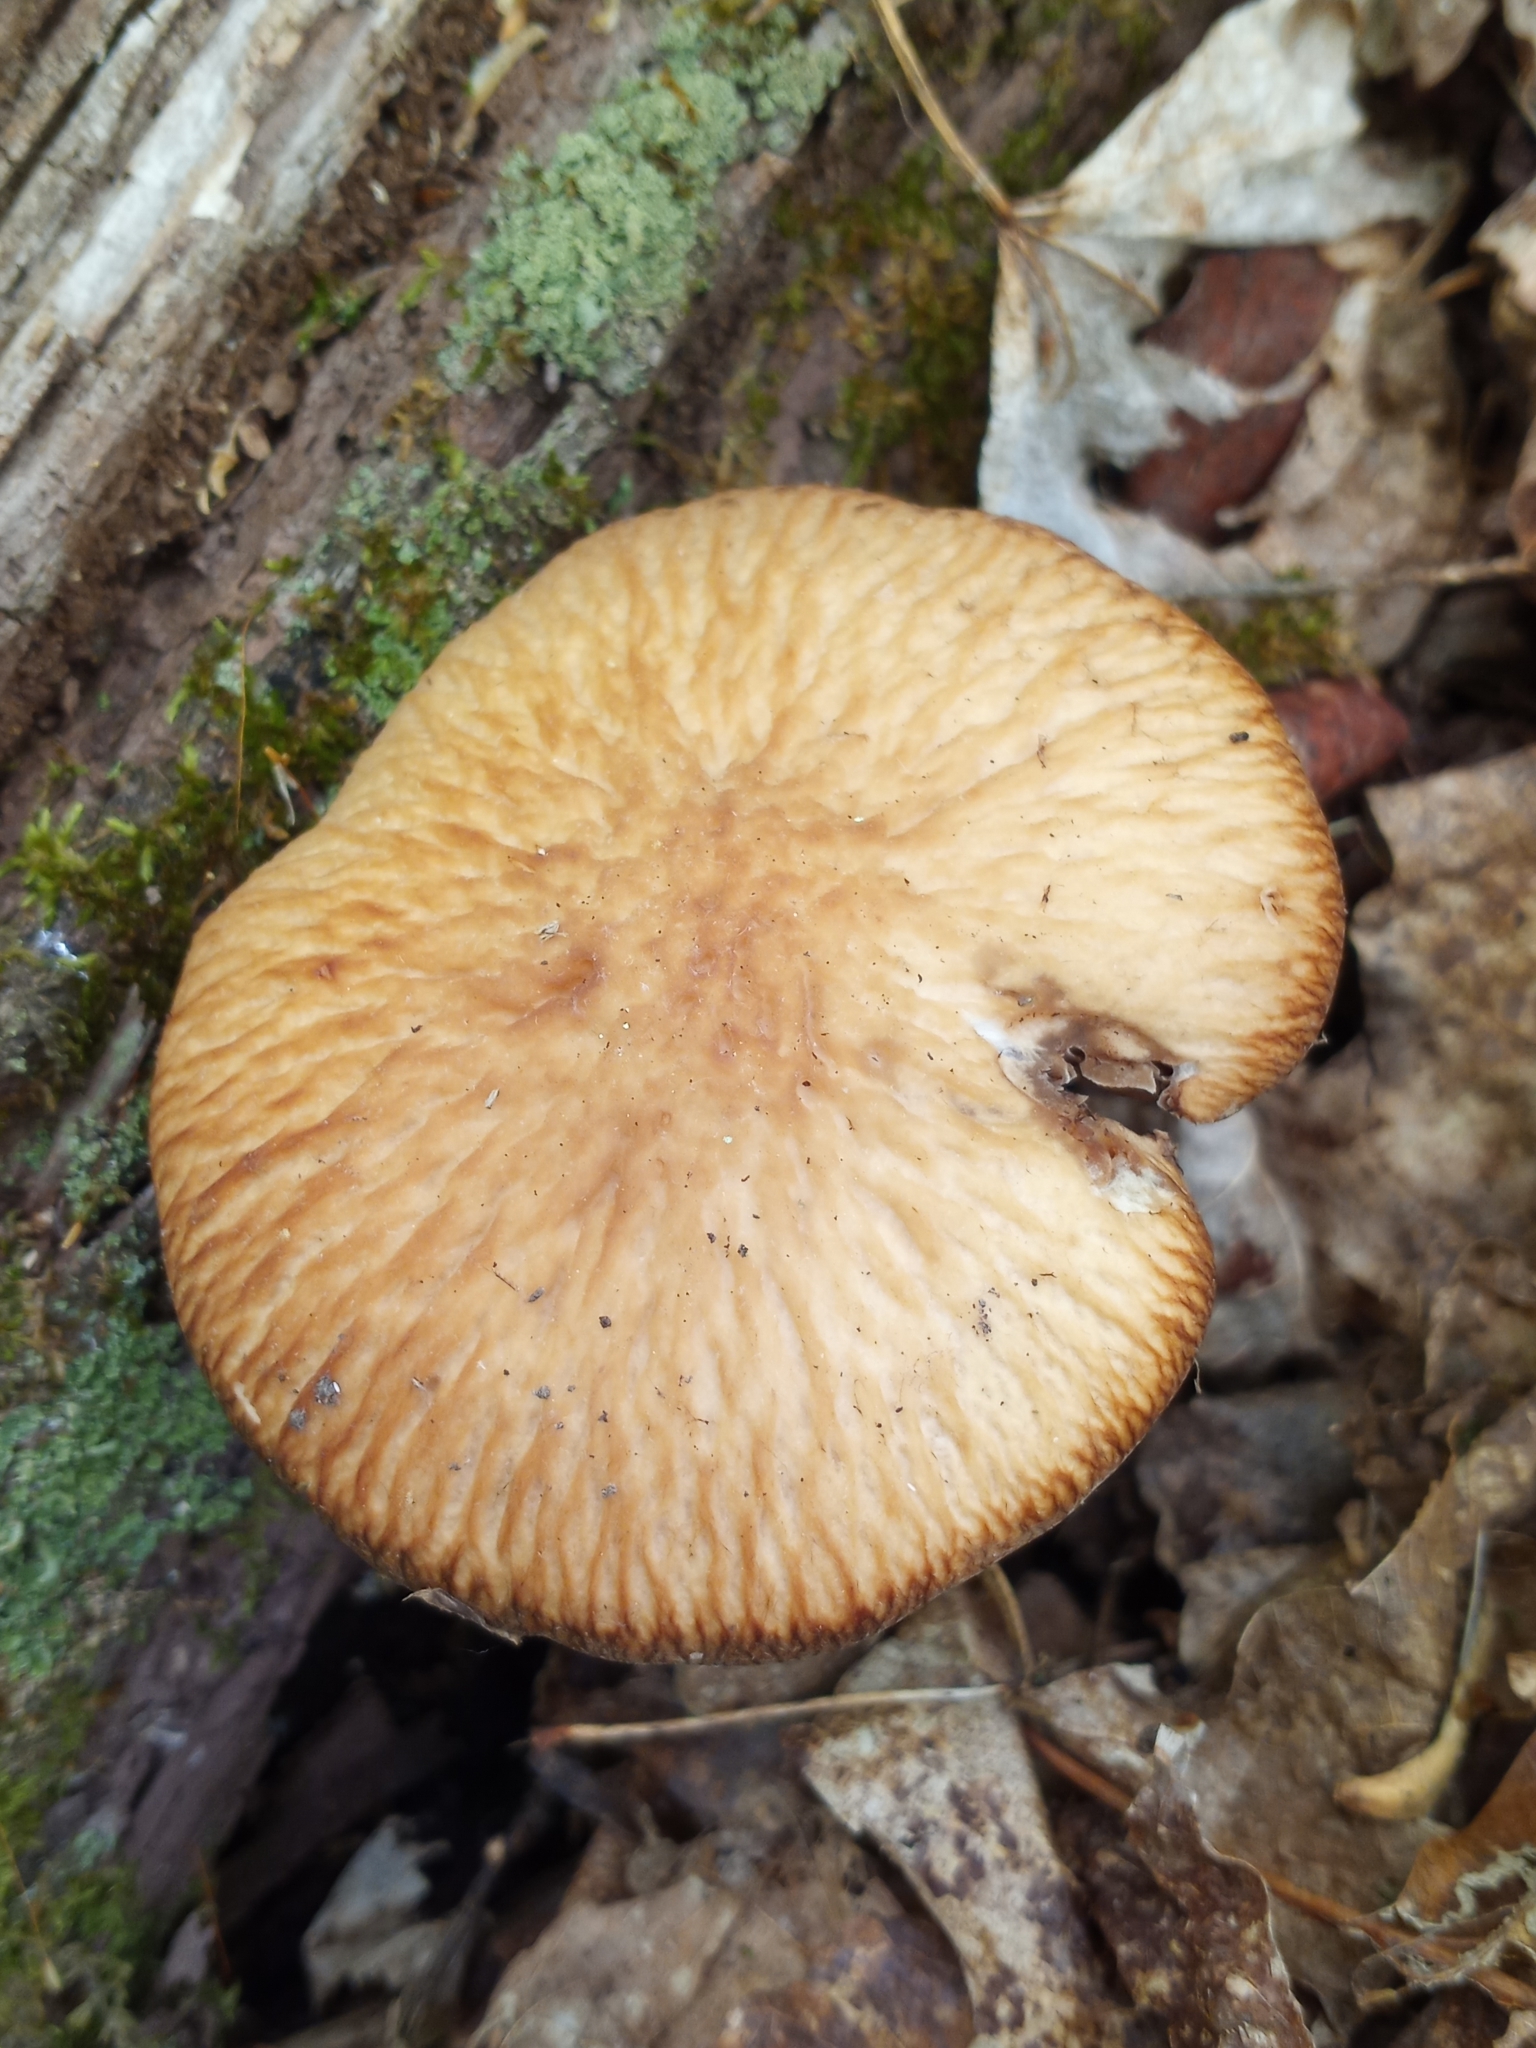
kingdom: Fungi
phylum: Basidiomycota
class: Agaricomycetes
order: Agaricales
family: Psathyrellaceae
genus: Typhrasa
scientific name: Typhrasa gossypina
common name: Wrinkled psathyrella
